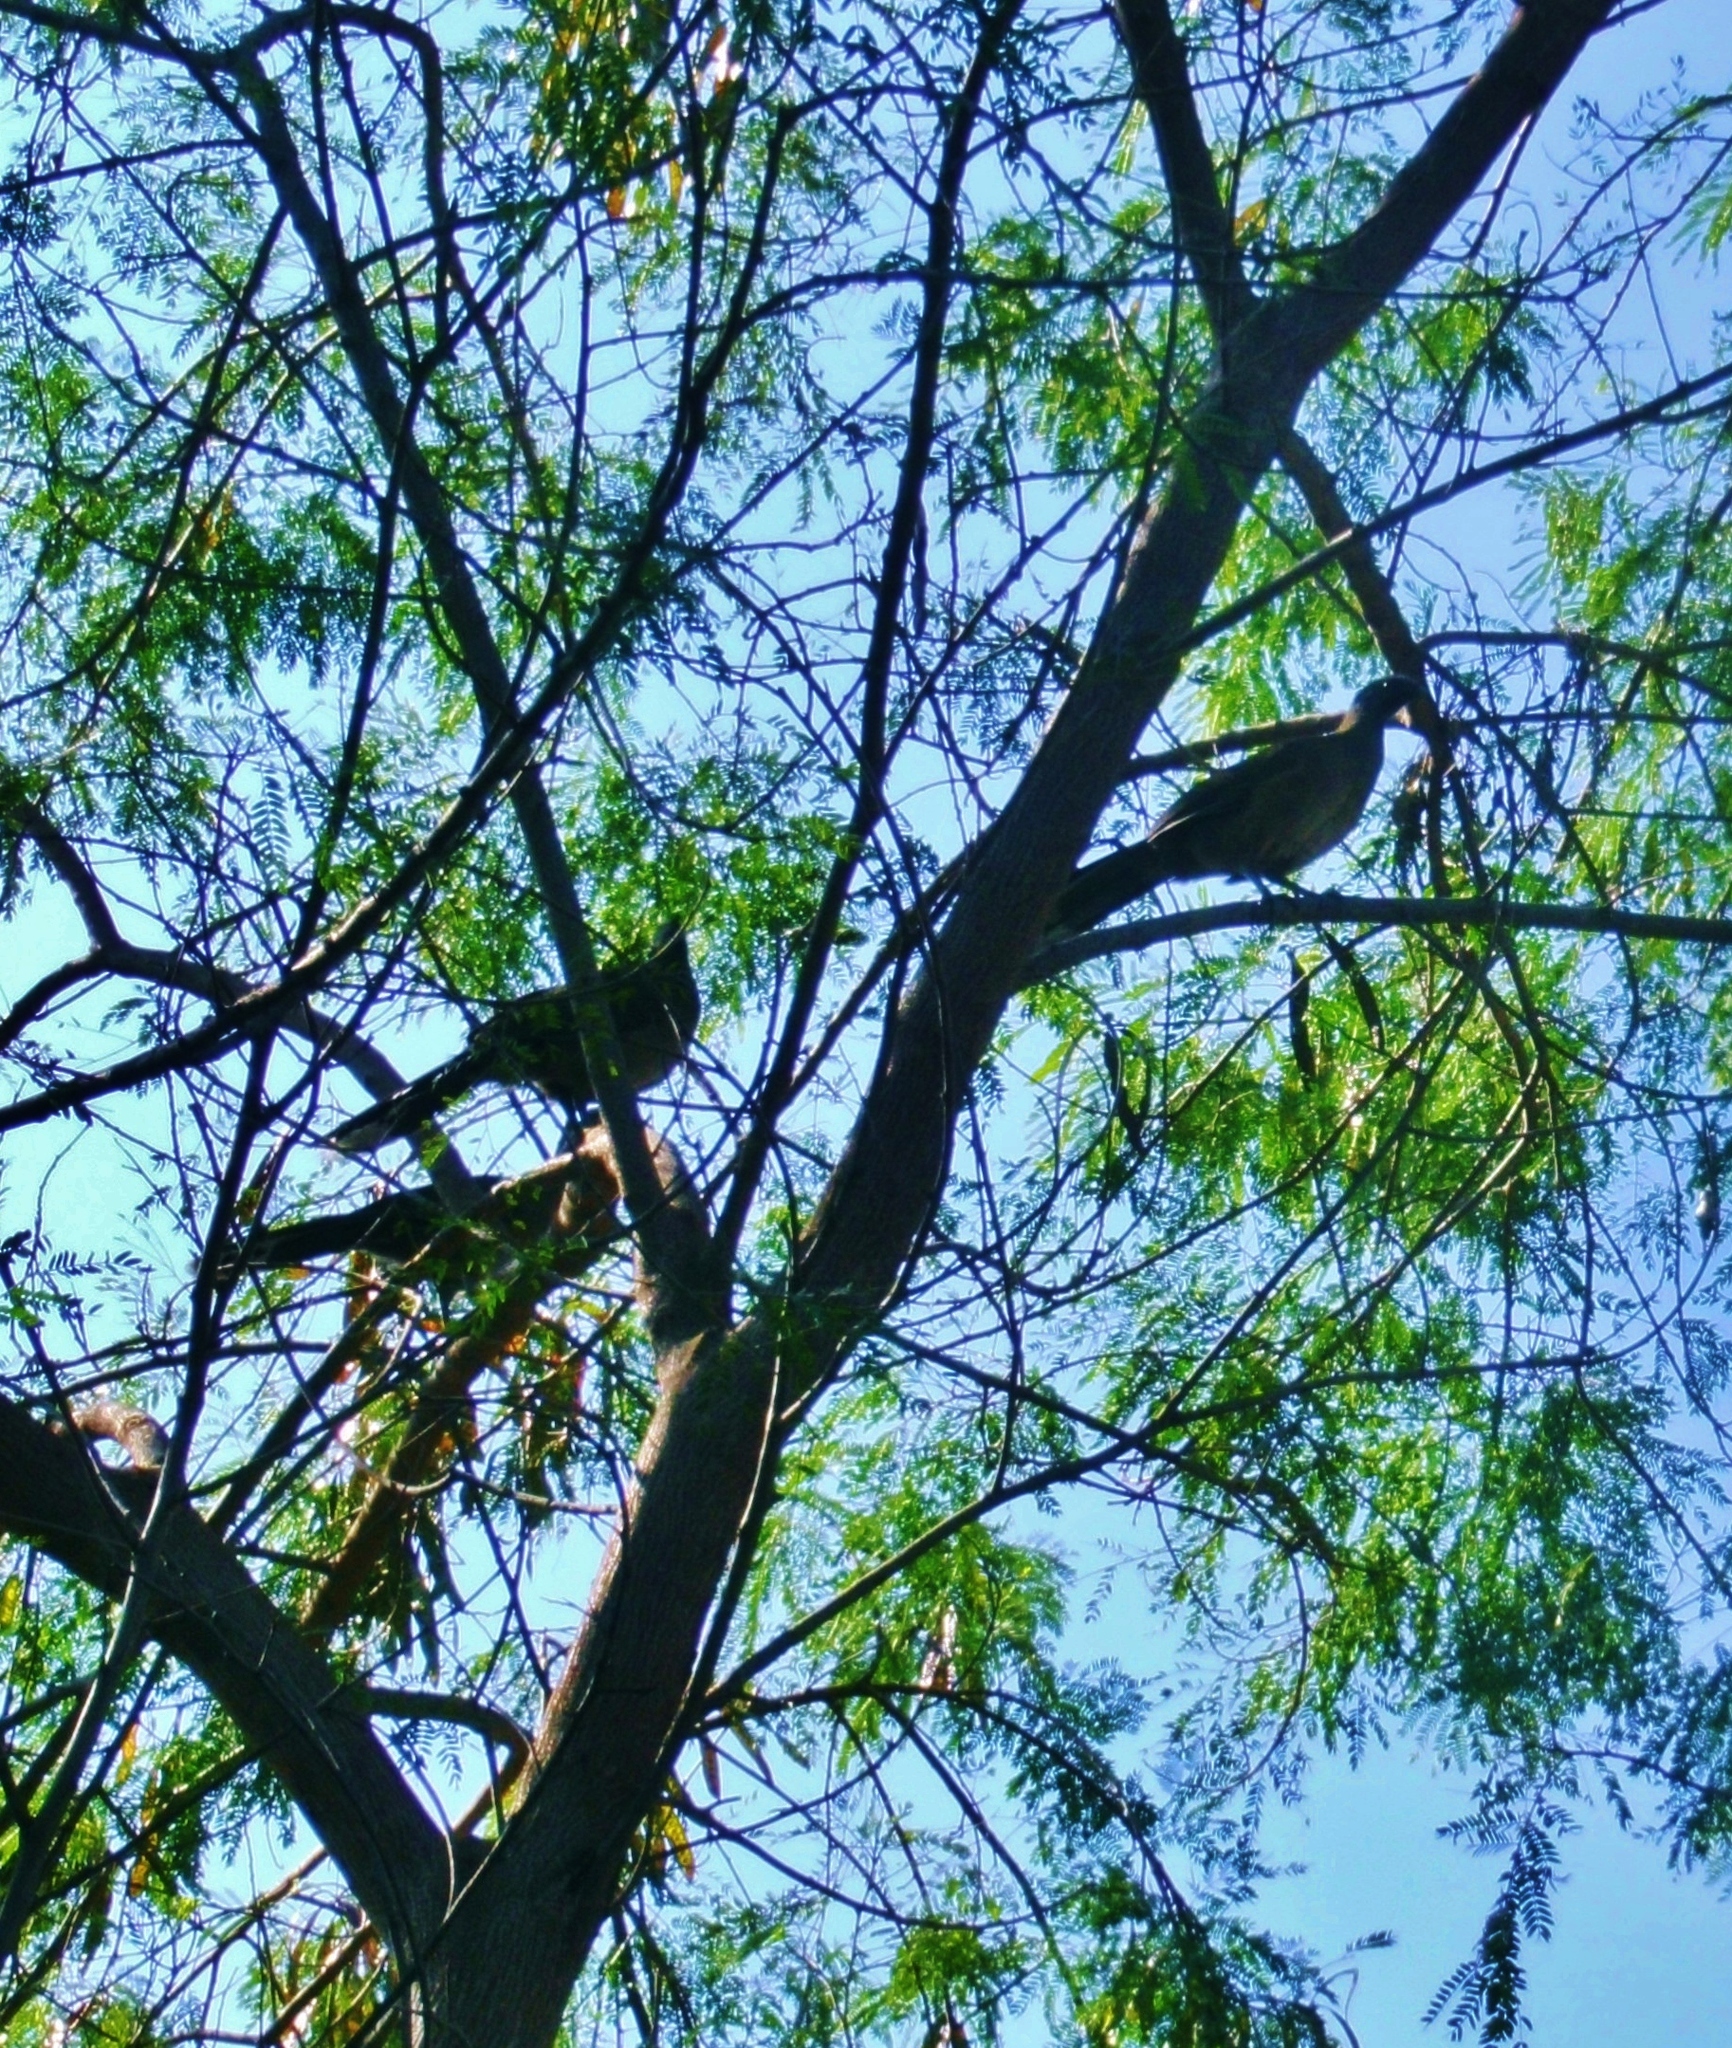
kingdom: Animalia
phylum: Chordata
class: Aves
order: Galliformes
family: Cracidae
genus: Ortalis
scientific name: Ortalis vetula
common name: Plain chachalaca
